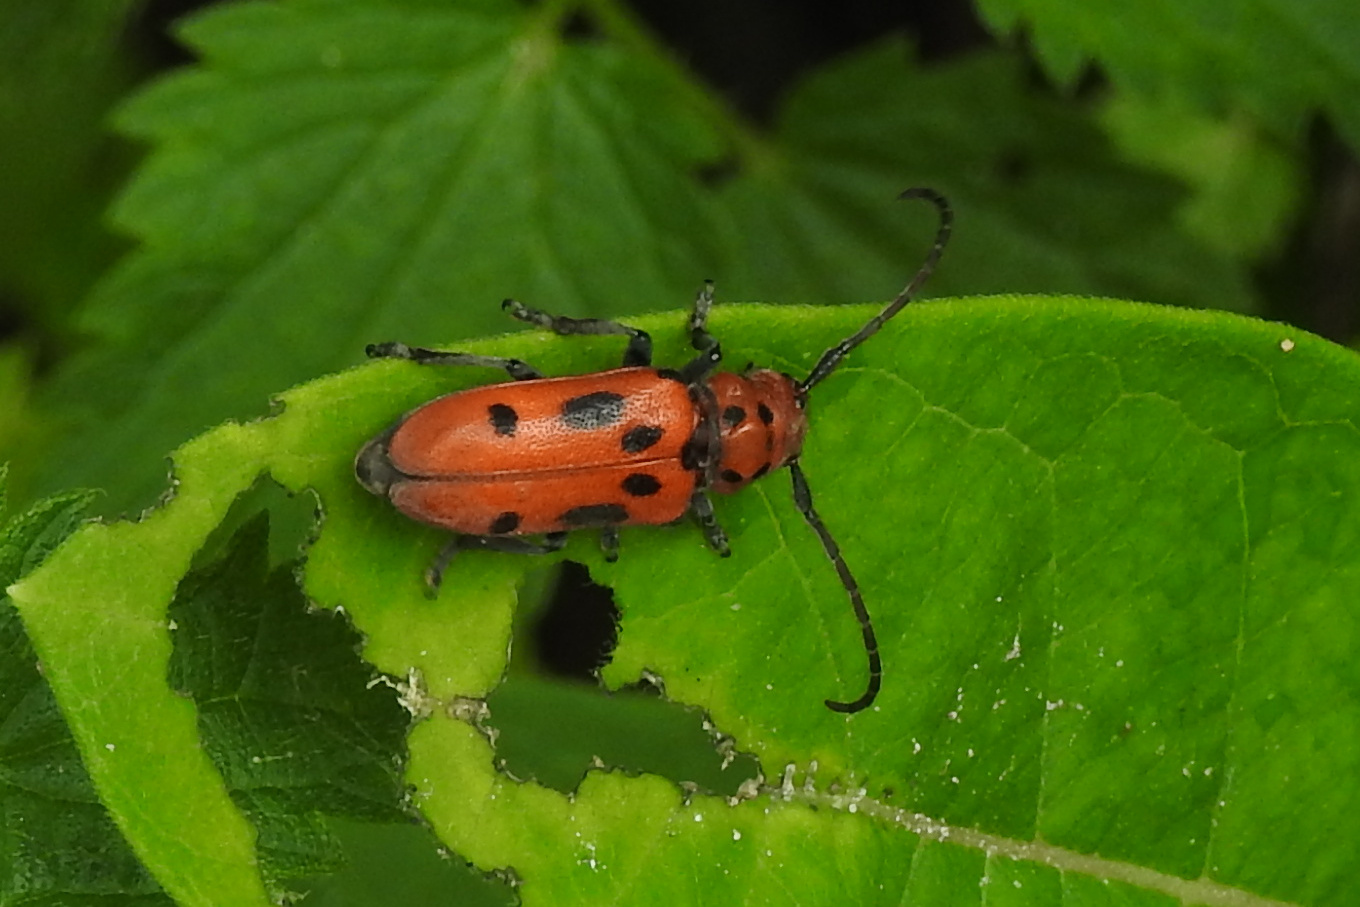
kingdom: Animalia
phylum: Arthropoda
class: Insecta
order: Coleoptera
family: Cerambycidae
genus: Tetraopes
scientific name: Tetraopes tetrophthalmus
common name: Red milkweed beetle
